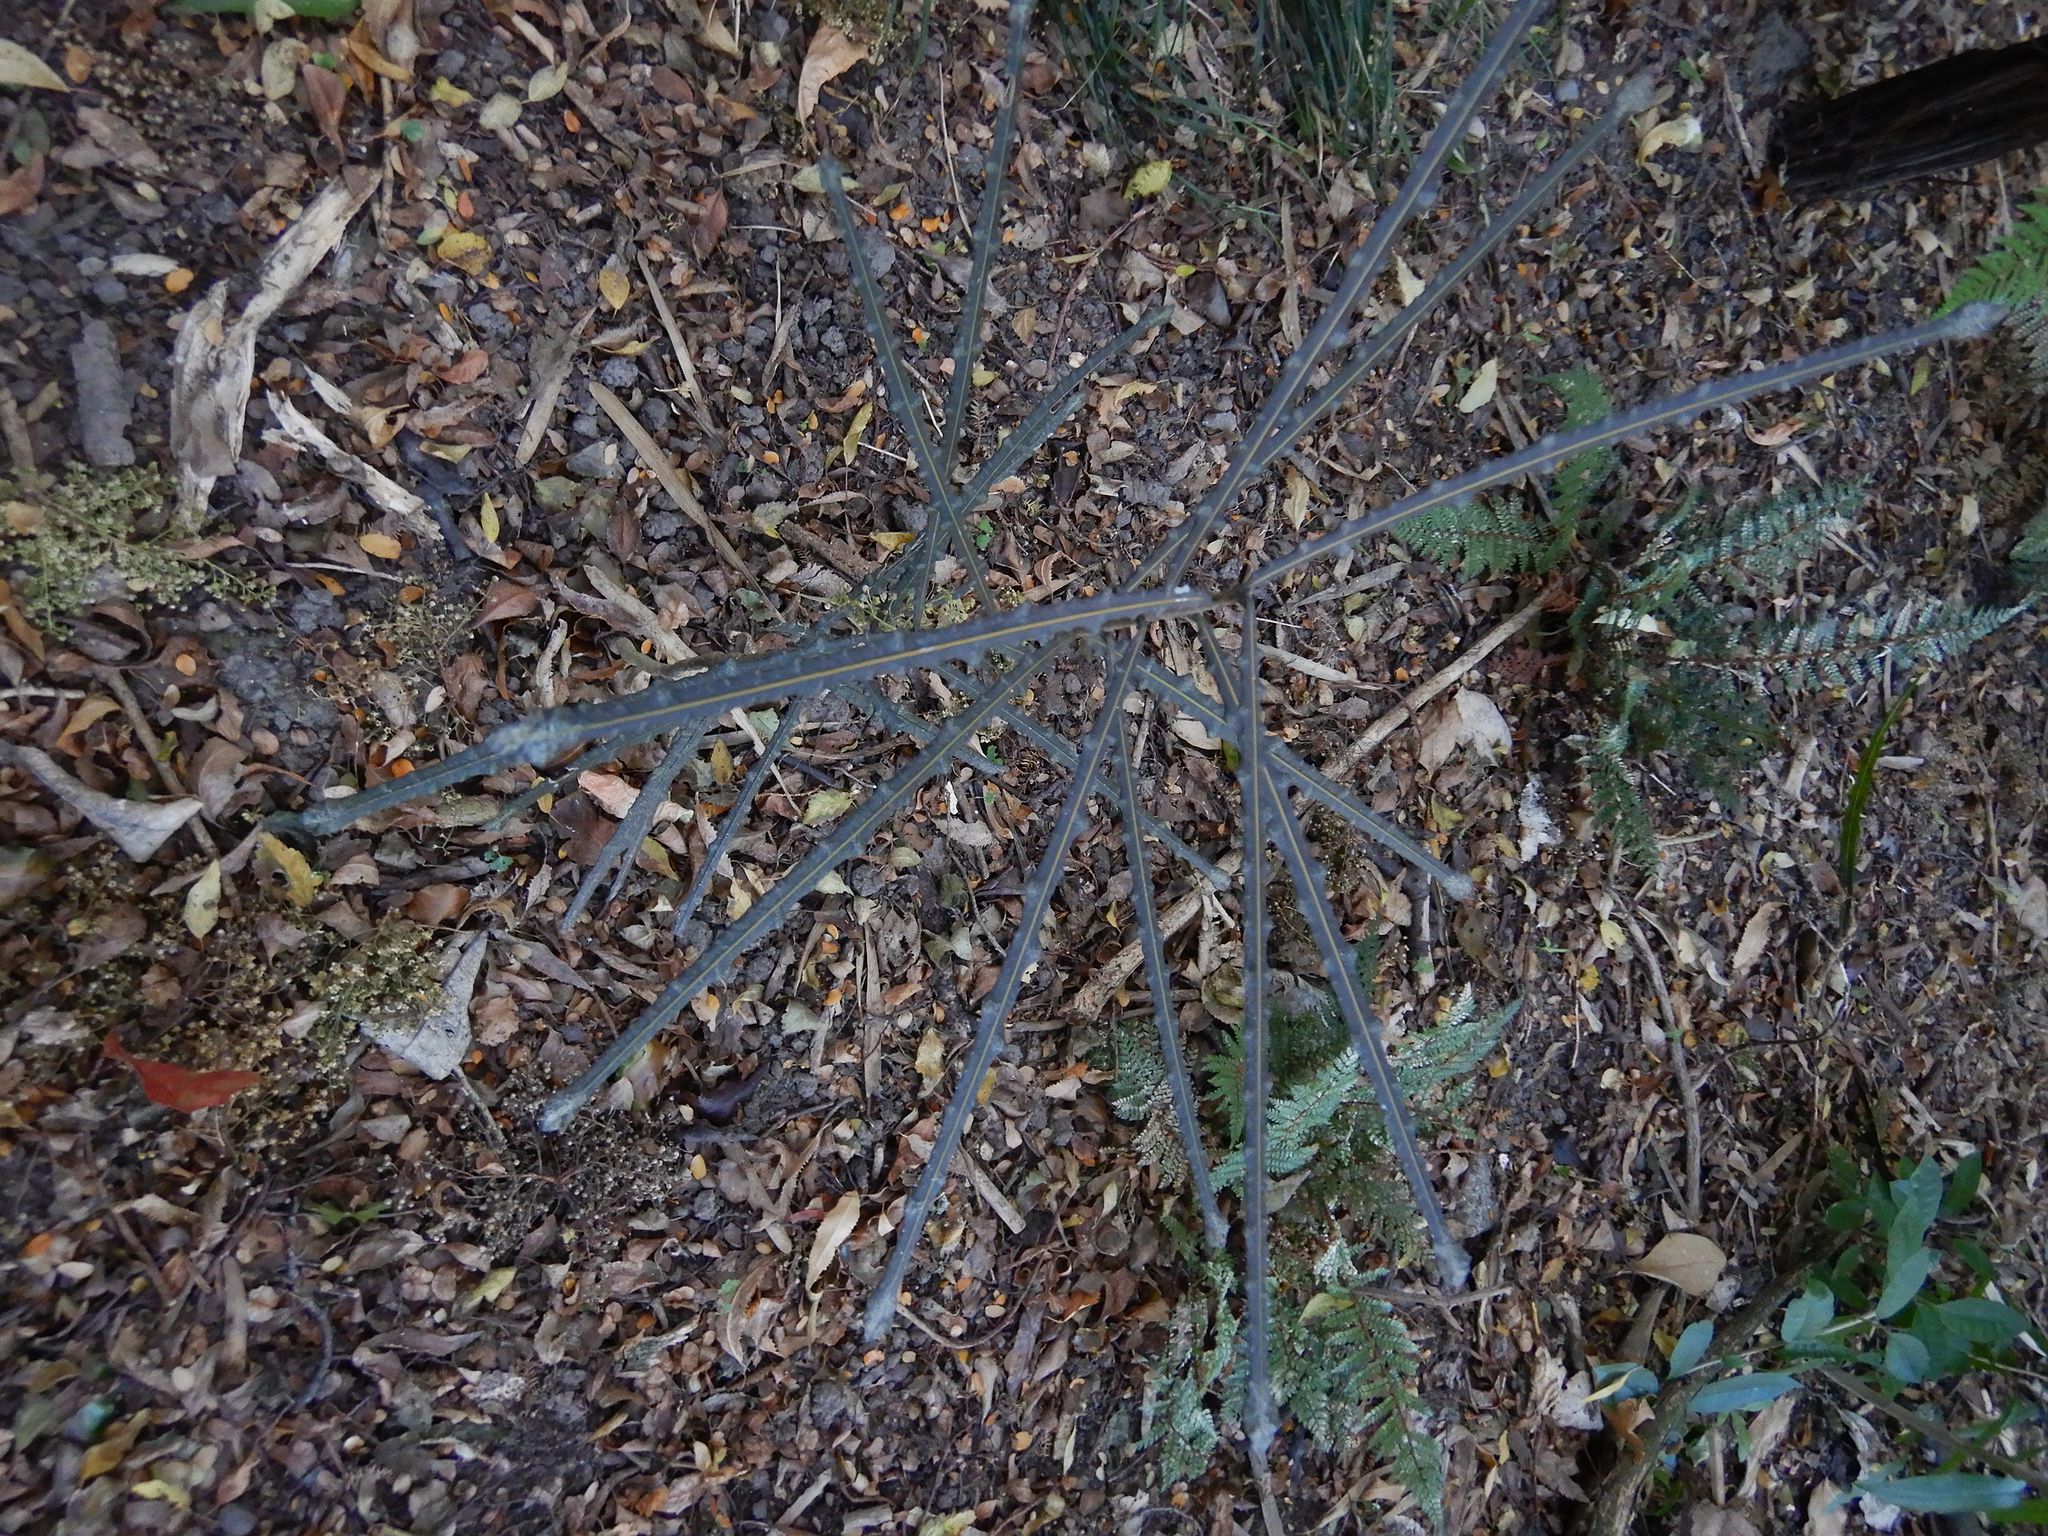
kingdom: Plantae
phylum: Tracheophyta
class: Magnoliopsida
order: Apiales
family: Araliaceae
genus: Pseudopanax
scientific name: Pseudopanax ferox
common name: Fierce lancewood
